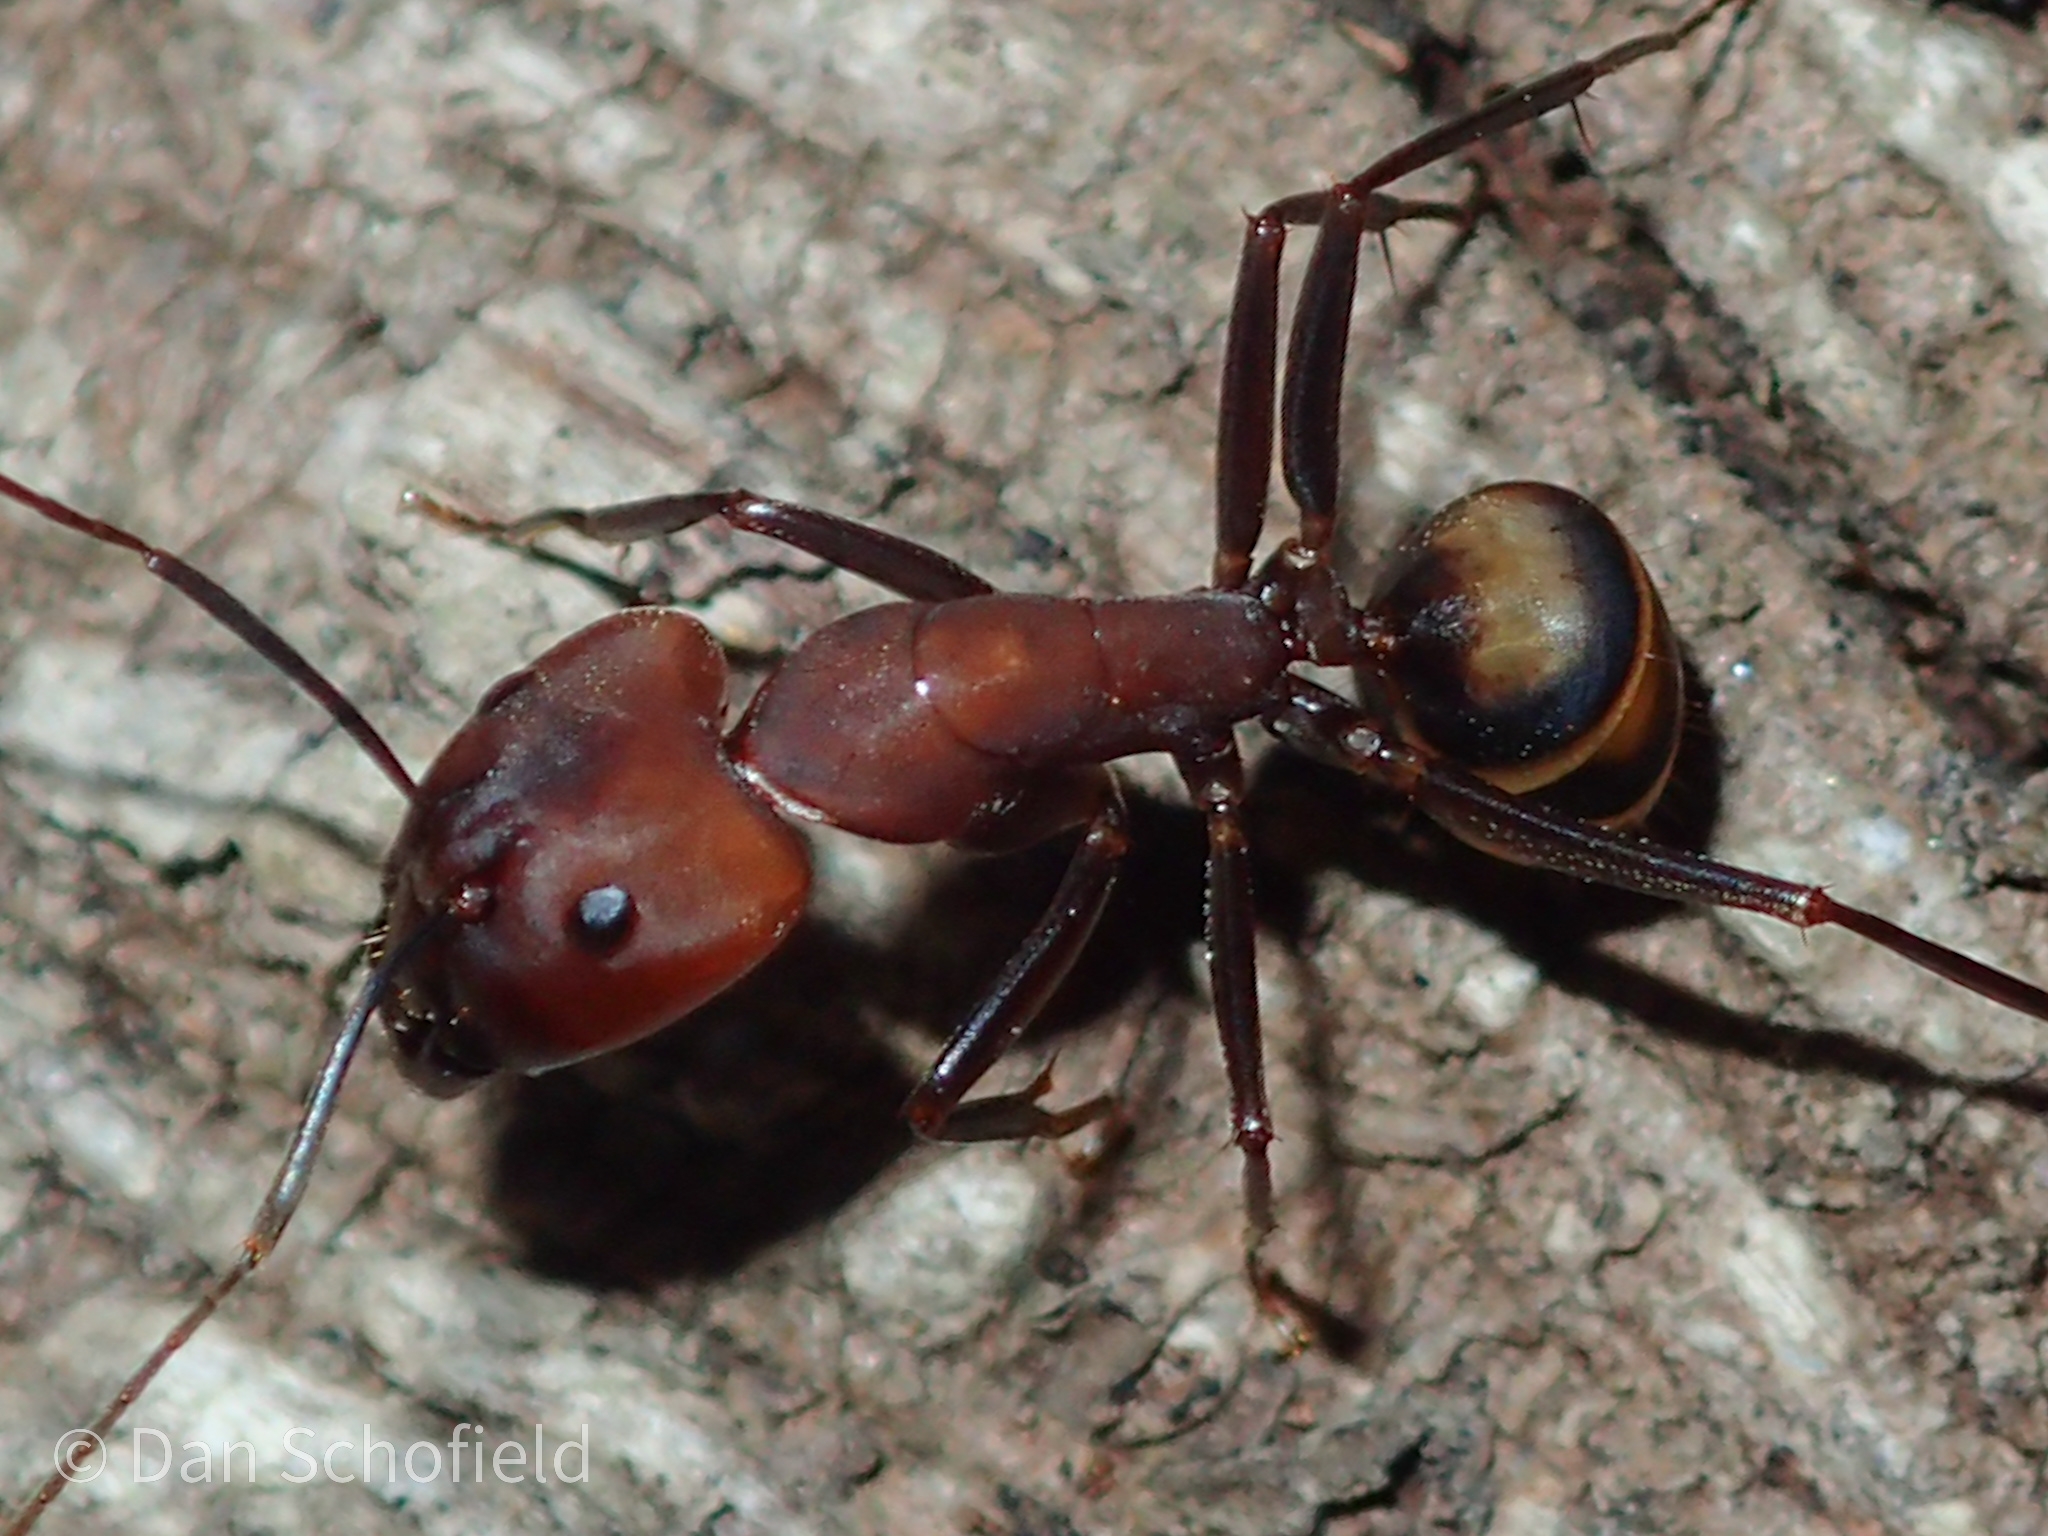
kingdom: Animalia
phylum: Arthropoda
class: Insecta
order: Hymenoptera
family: Formicidae
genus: Camponotus
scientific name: Camponotus habereri
